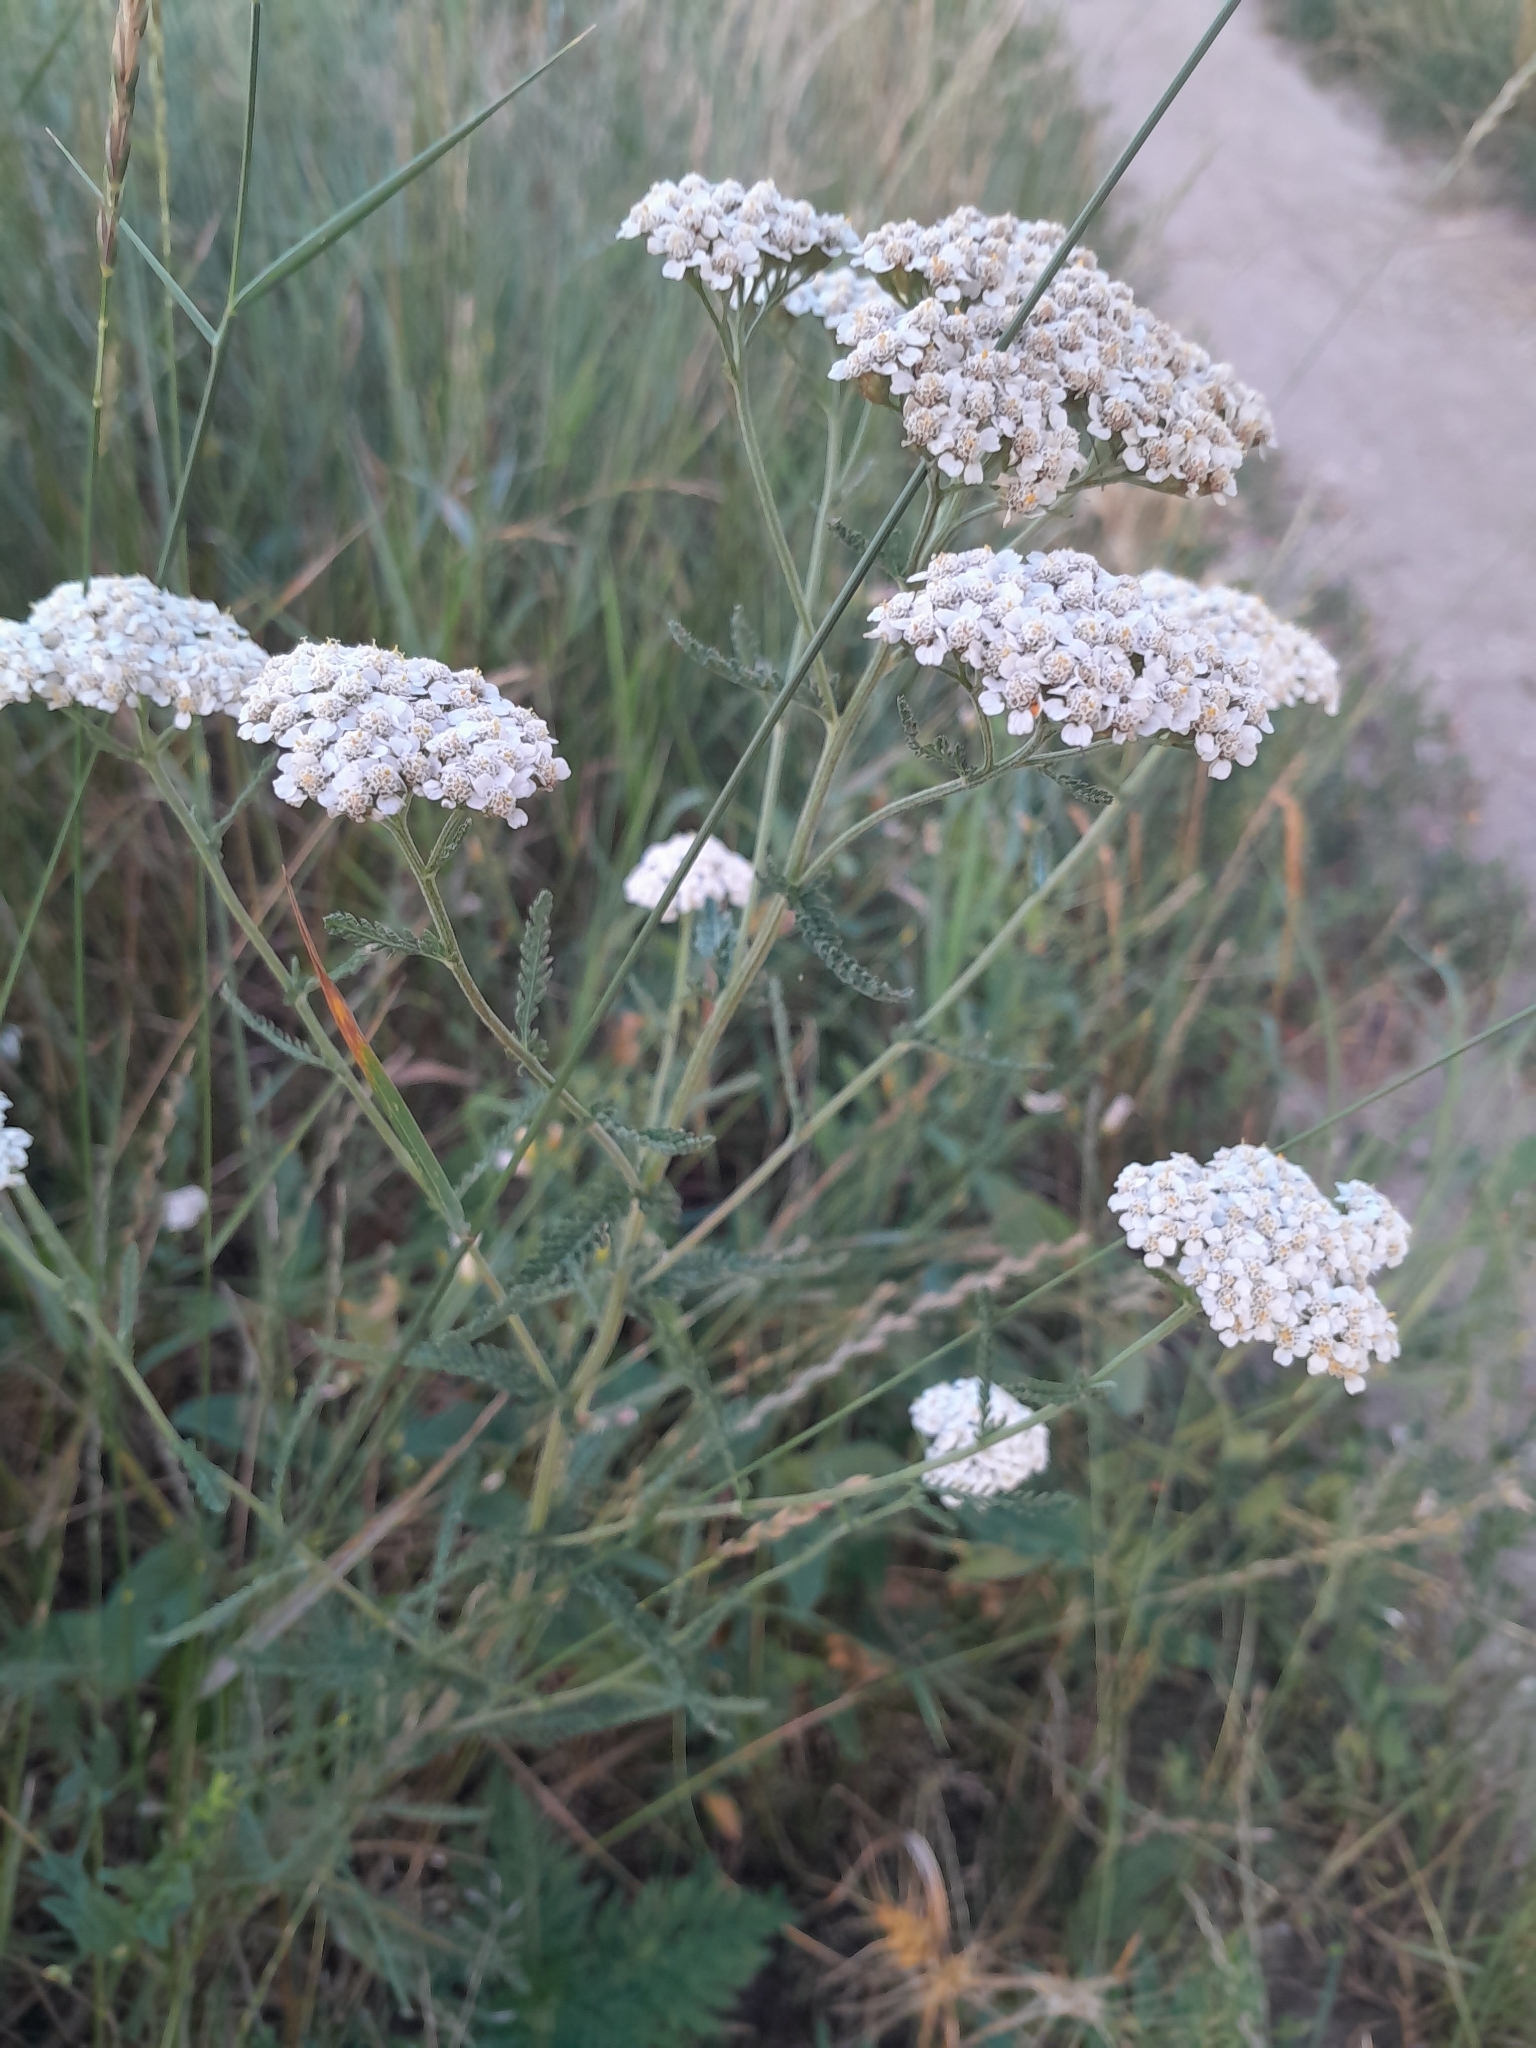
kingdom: Plantae
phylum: Tracheophyta
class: Magnoliopsida
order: Asterales
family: Asteraceae
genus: Achillea
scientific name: Achillea millefolium
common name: Yarrow
